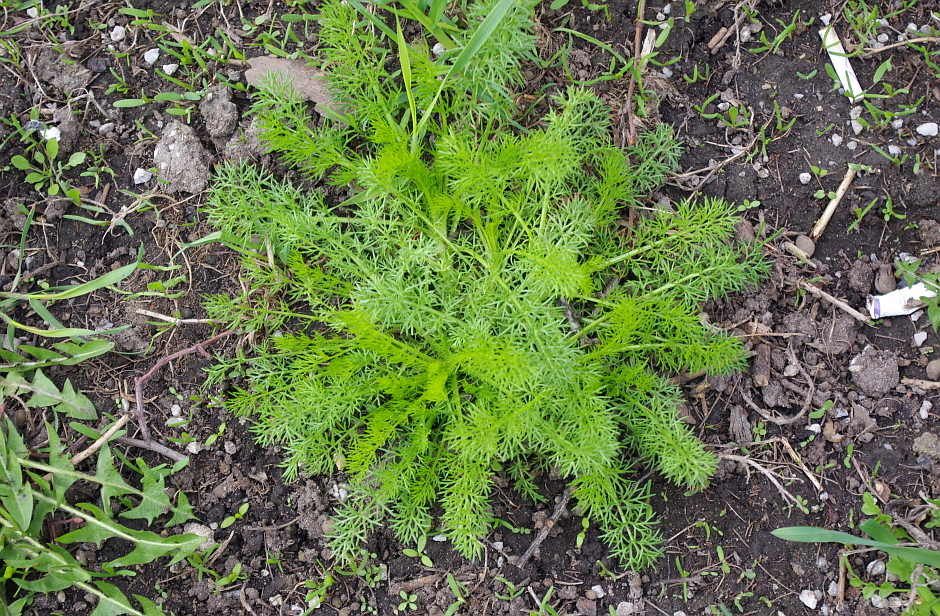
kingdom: Plantae
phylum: Tracheophyta
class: Magnoliopsida
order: Asterales
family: Asteraceae
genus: Tripleurospermum
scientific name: Tripleurospermum inodorum
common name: Scentless mayweed
